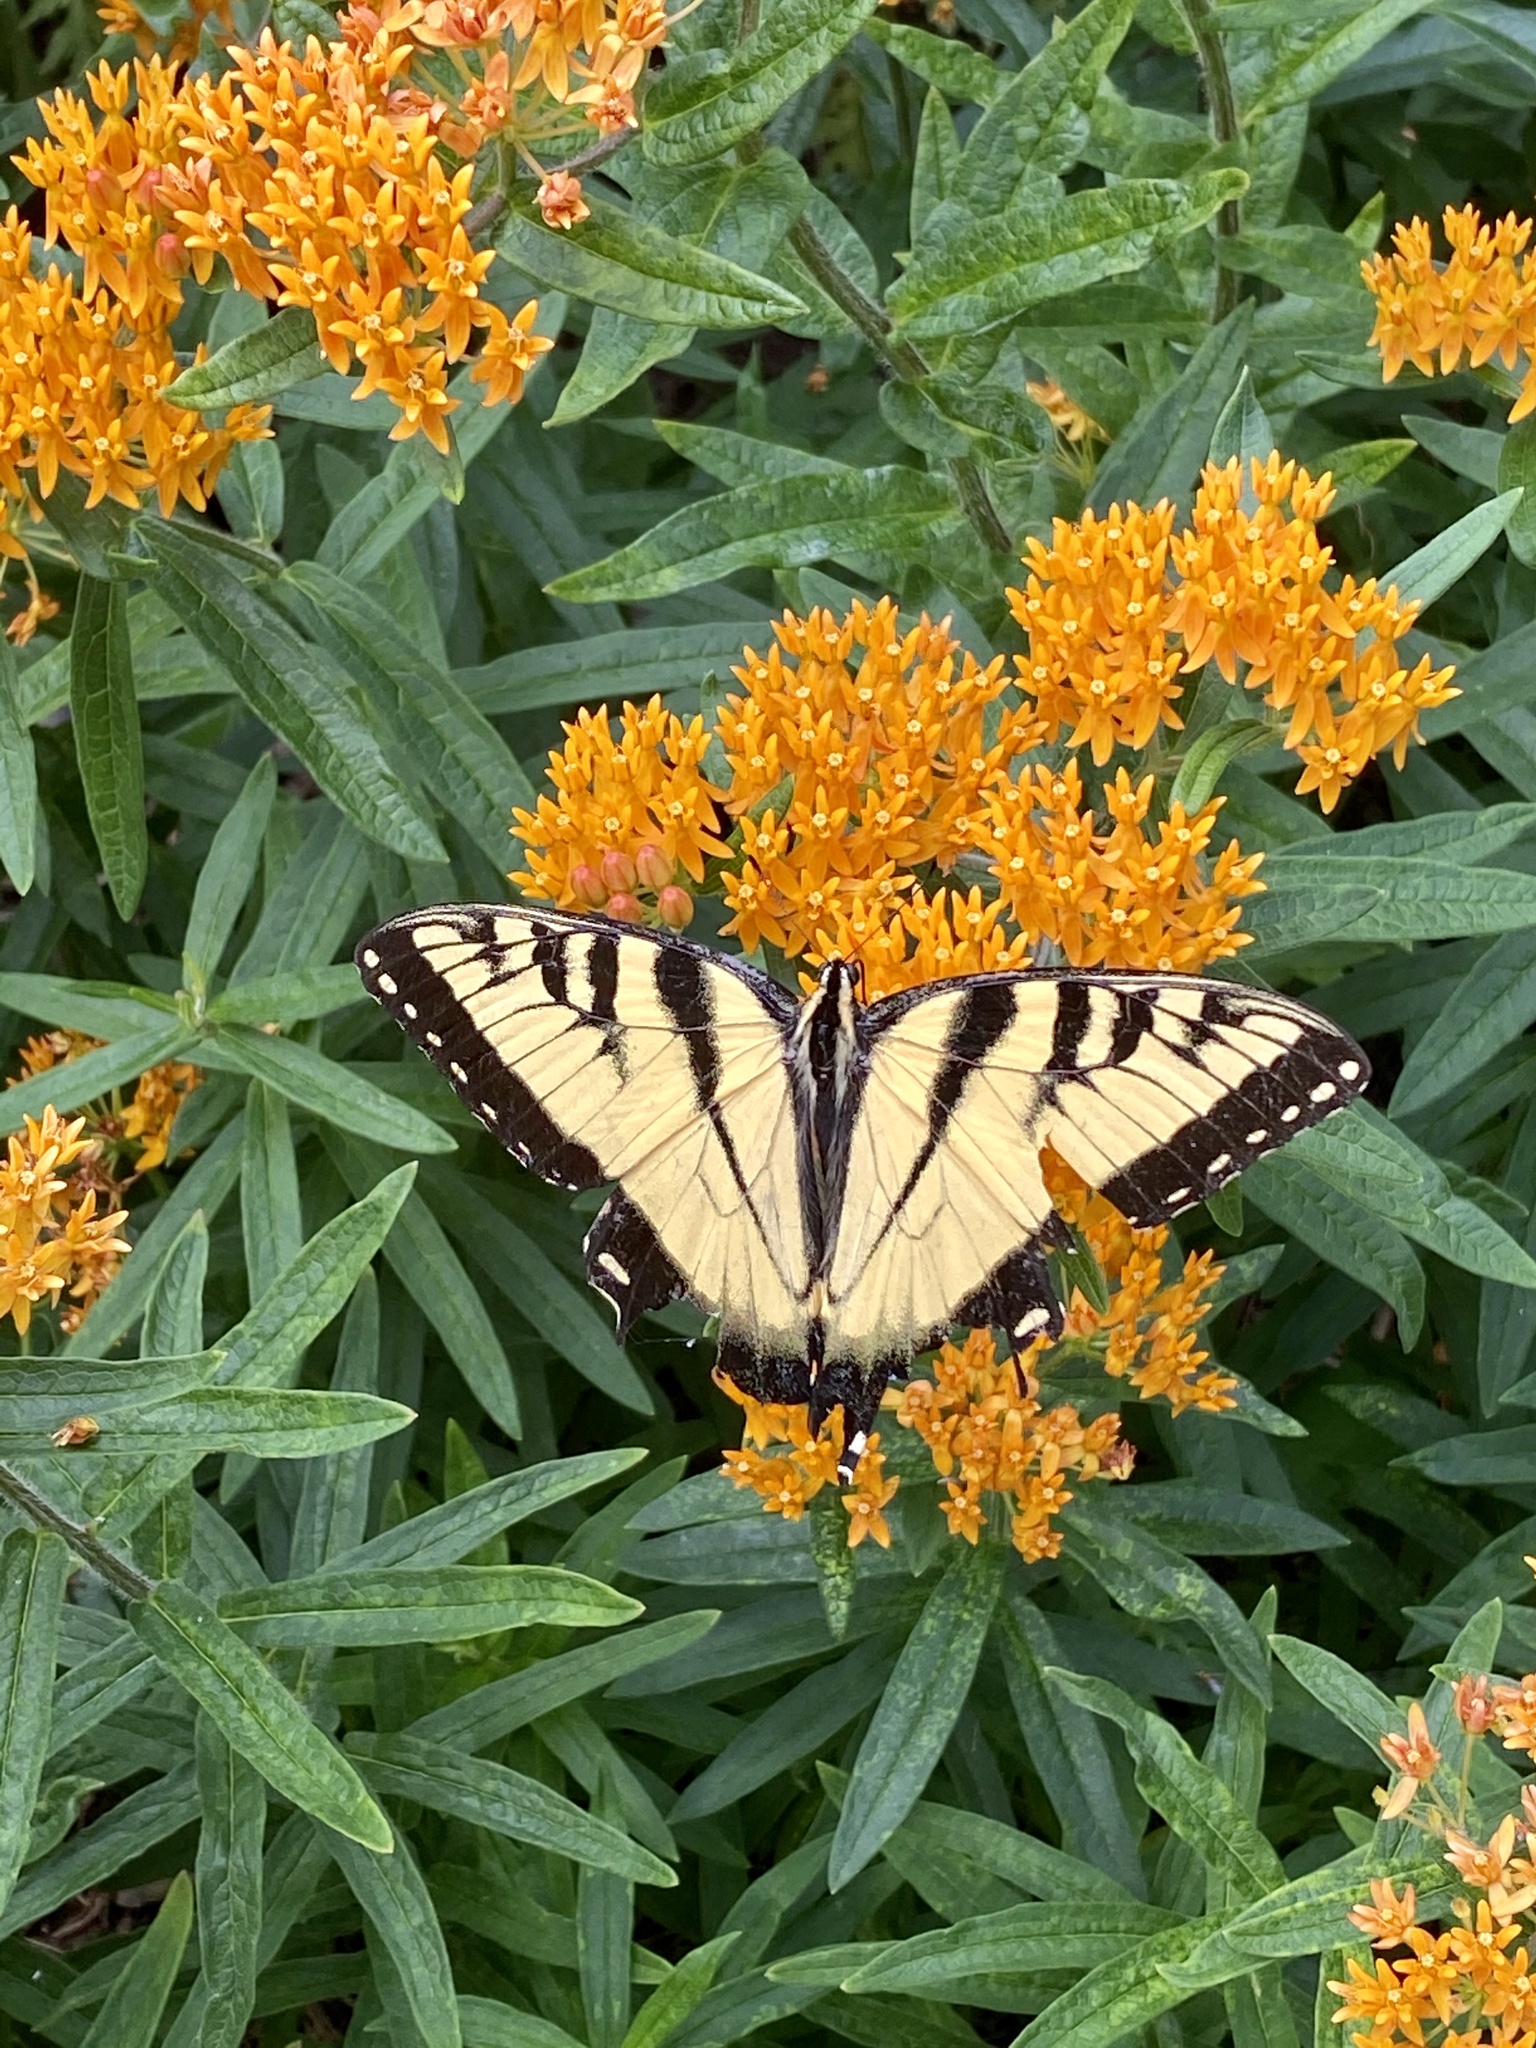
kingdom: Animalia
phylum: Arthropoda
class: Insecta
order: Lepidoptera
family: Papilionidae
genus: Papilio
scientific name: Papilio glaucus
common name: Tiger swallowtail
